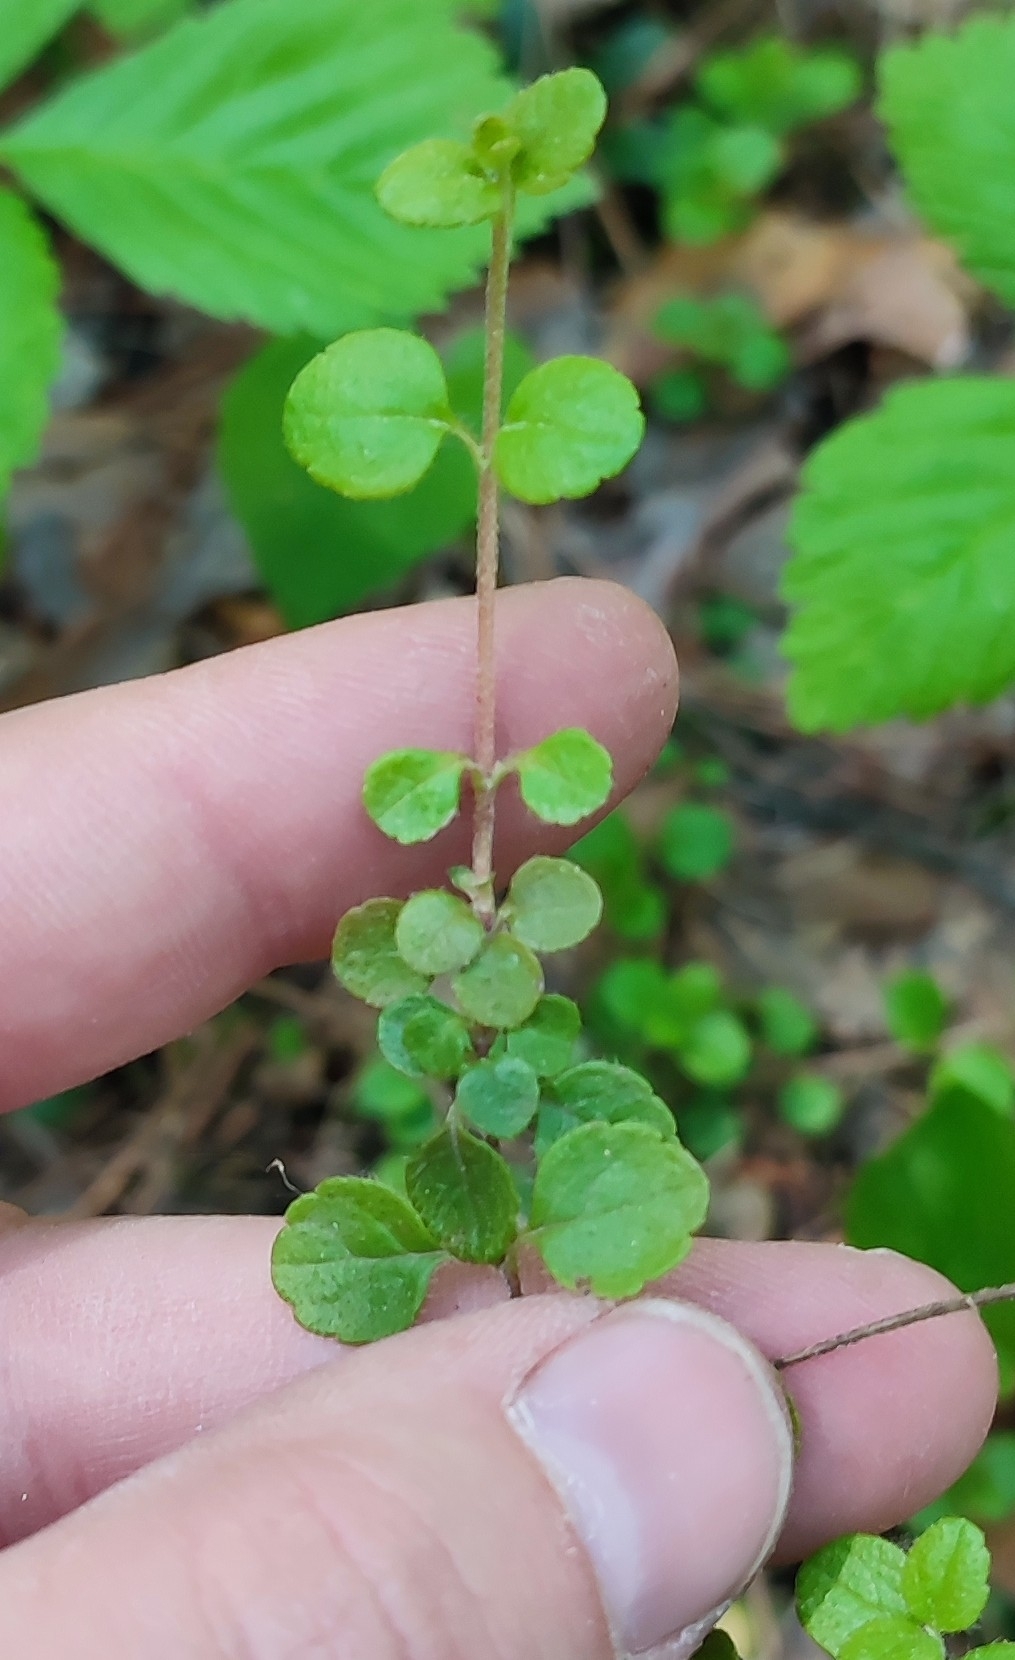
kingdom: Plantae
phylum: Tracheophyta
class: Magnoliopsida
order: Dipsacales
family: Caprifoliaceae
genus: Linnaea
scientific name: Linnaea borealis
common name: Twinflower
